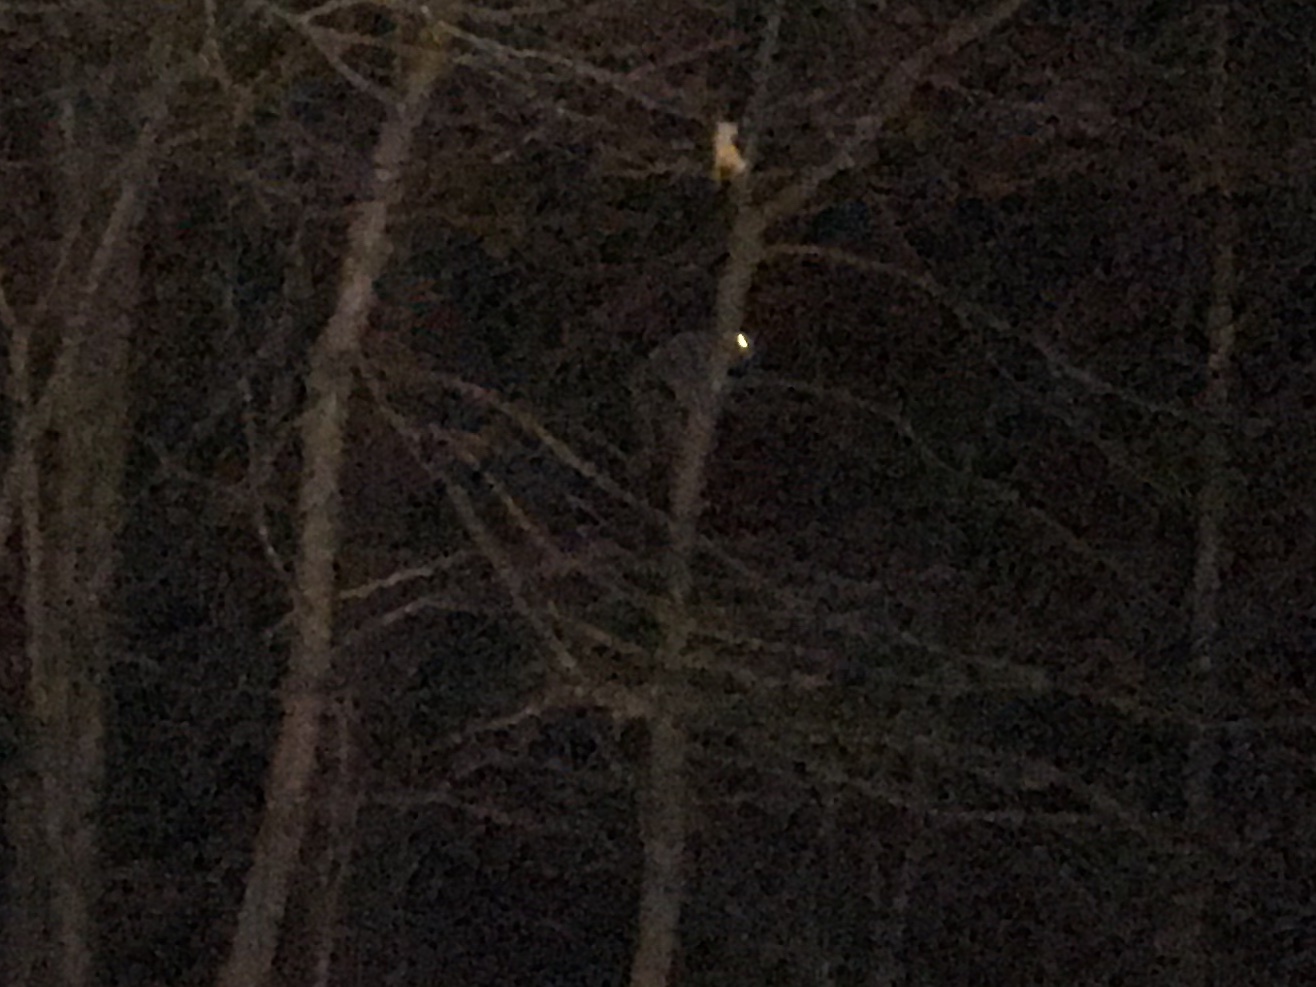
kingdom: Animalia
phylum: Chordata
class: Mammalia
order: Carnivora
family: Procyonidae
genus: Procyon
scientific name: Procyon lotor
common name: Raccoon
